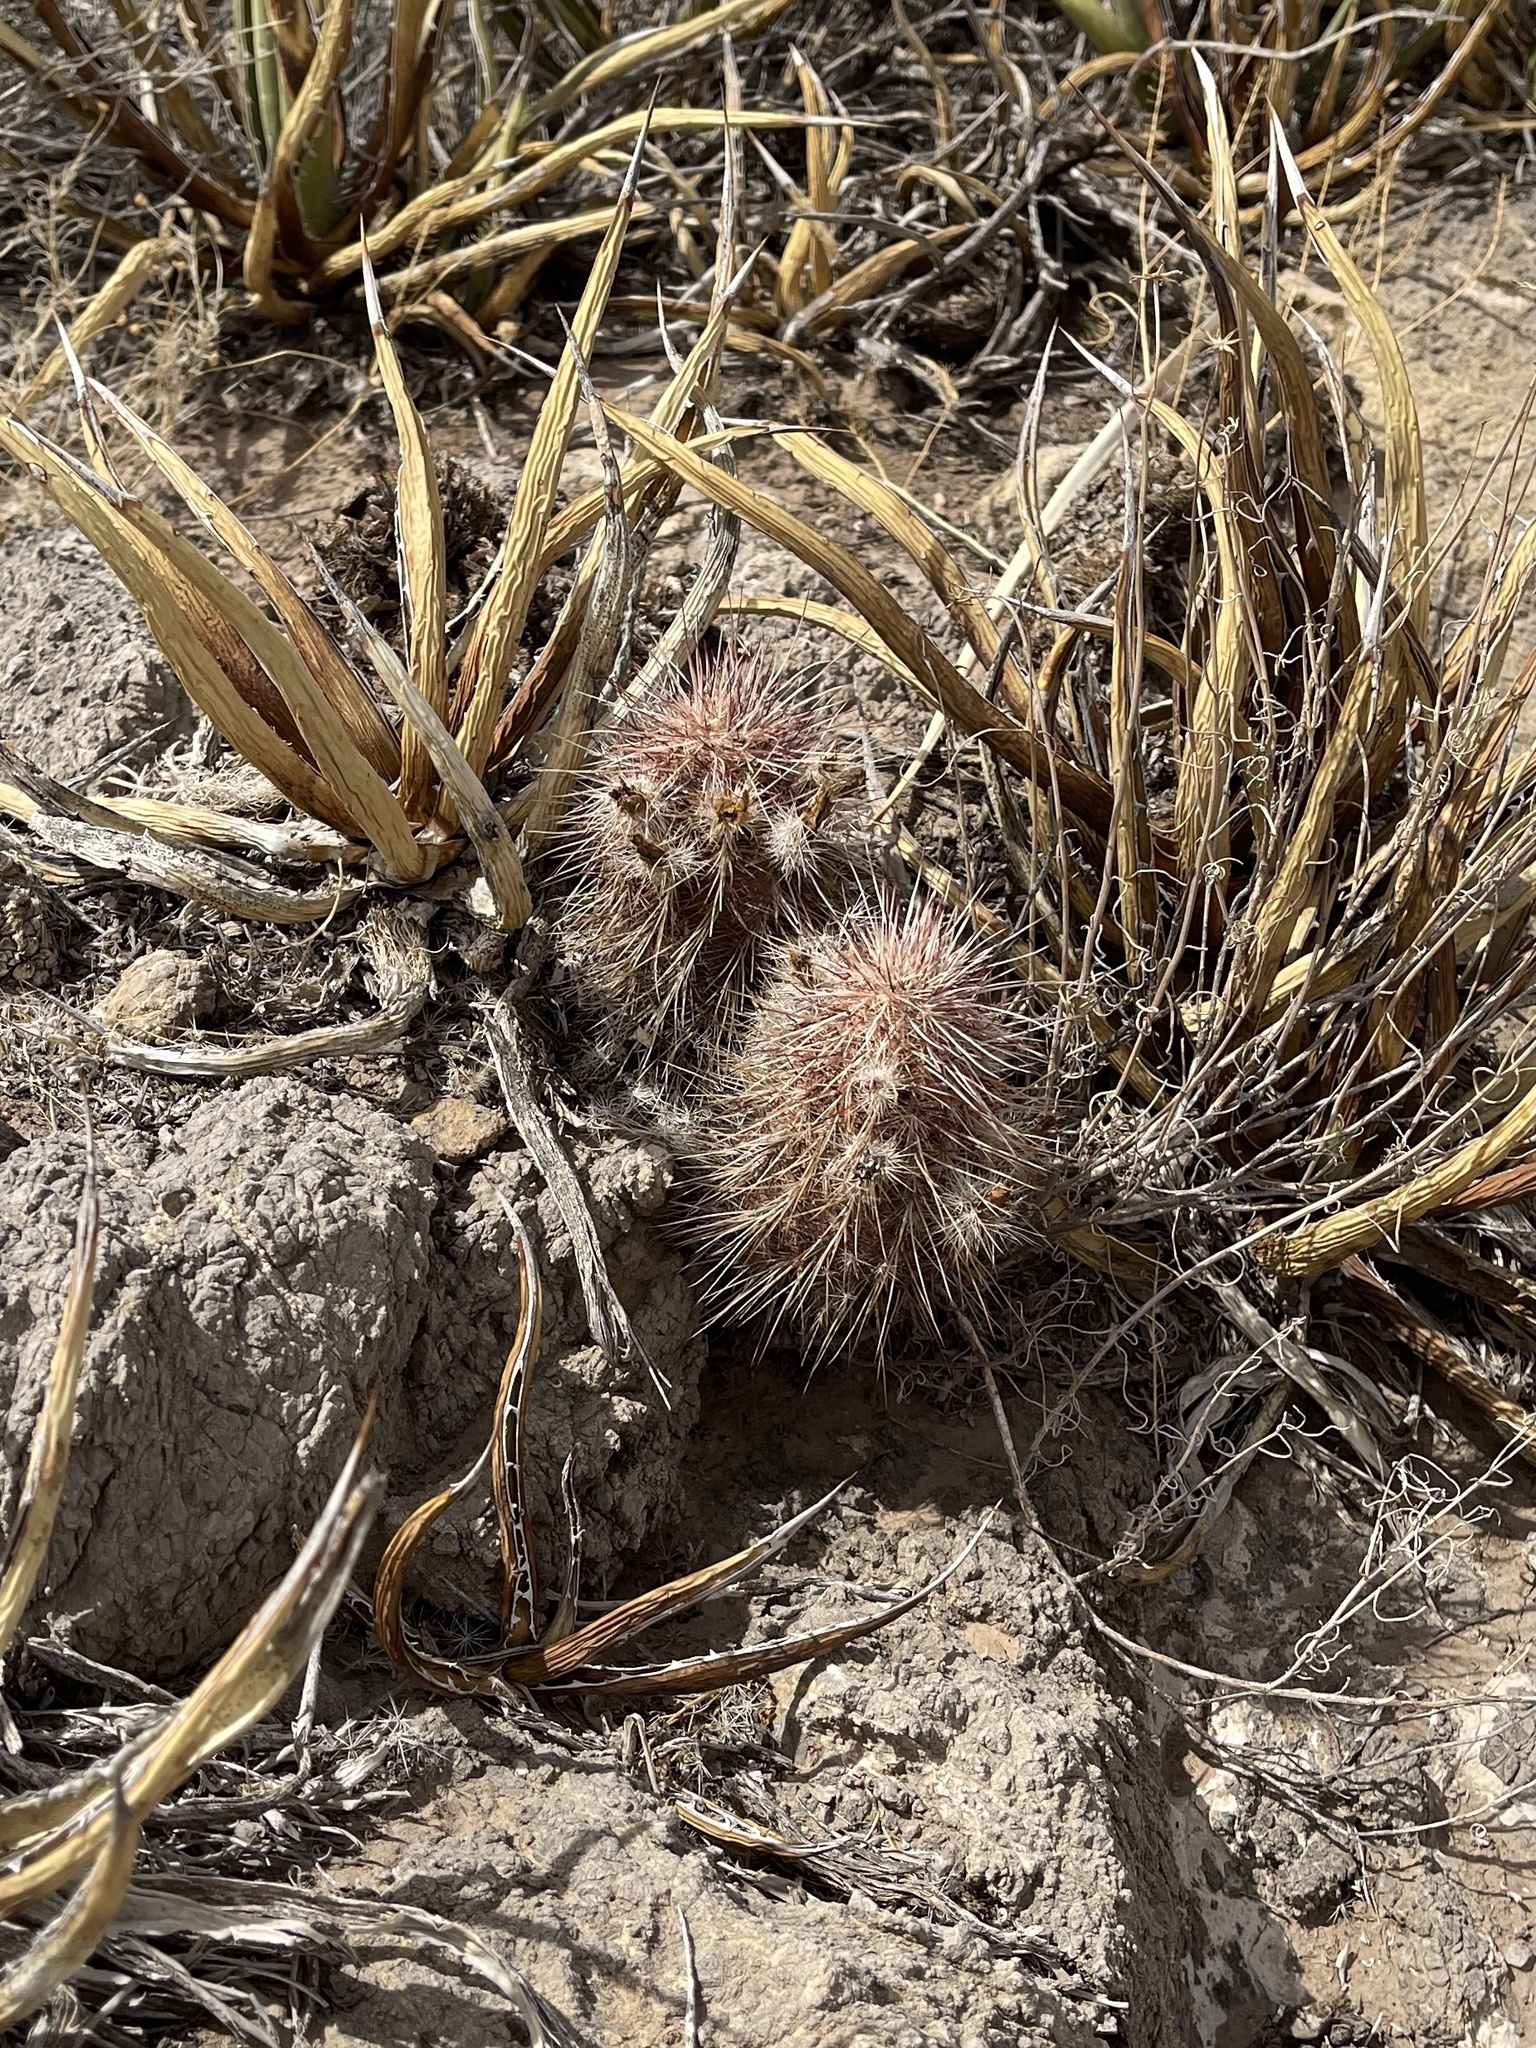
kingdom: Plantae
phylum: Tracheophyta
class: Magnoliopsida
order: Caryophyllales
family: Cactaceae
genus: Echinocereus
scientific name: Echinocereus viridiflorus
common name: Nylon hedgehog cactus
